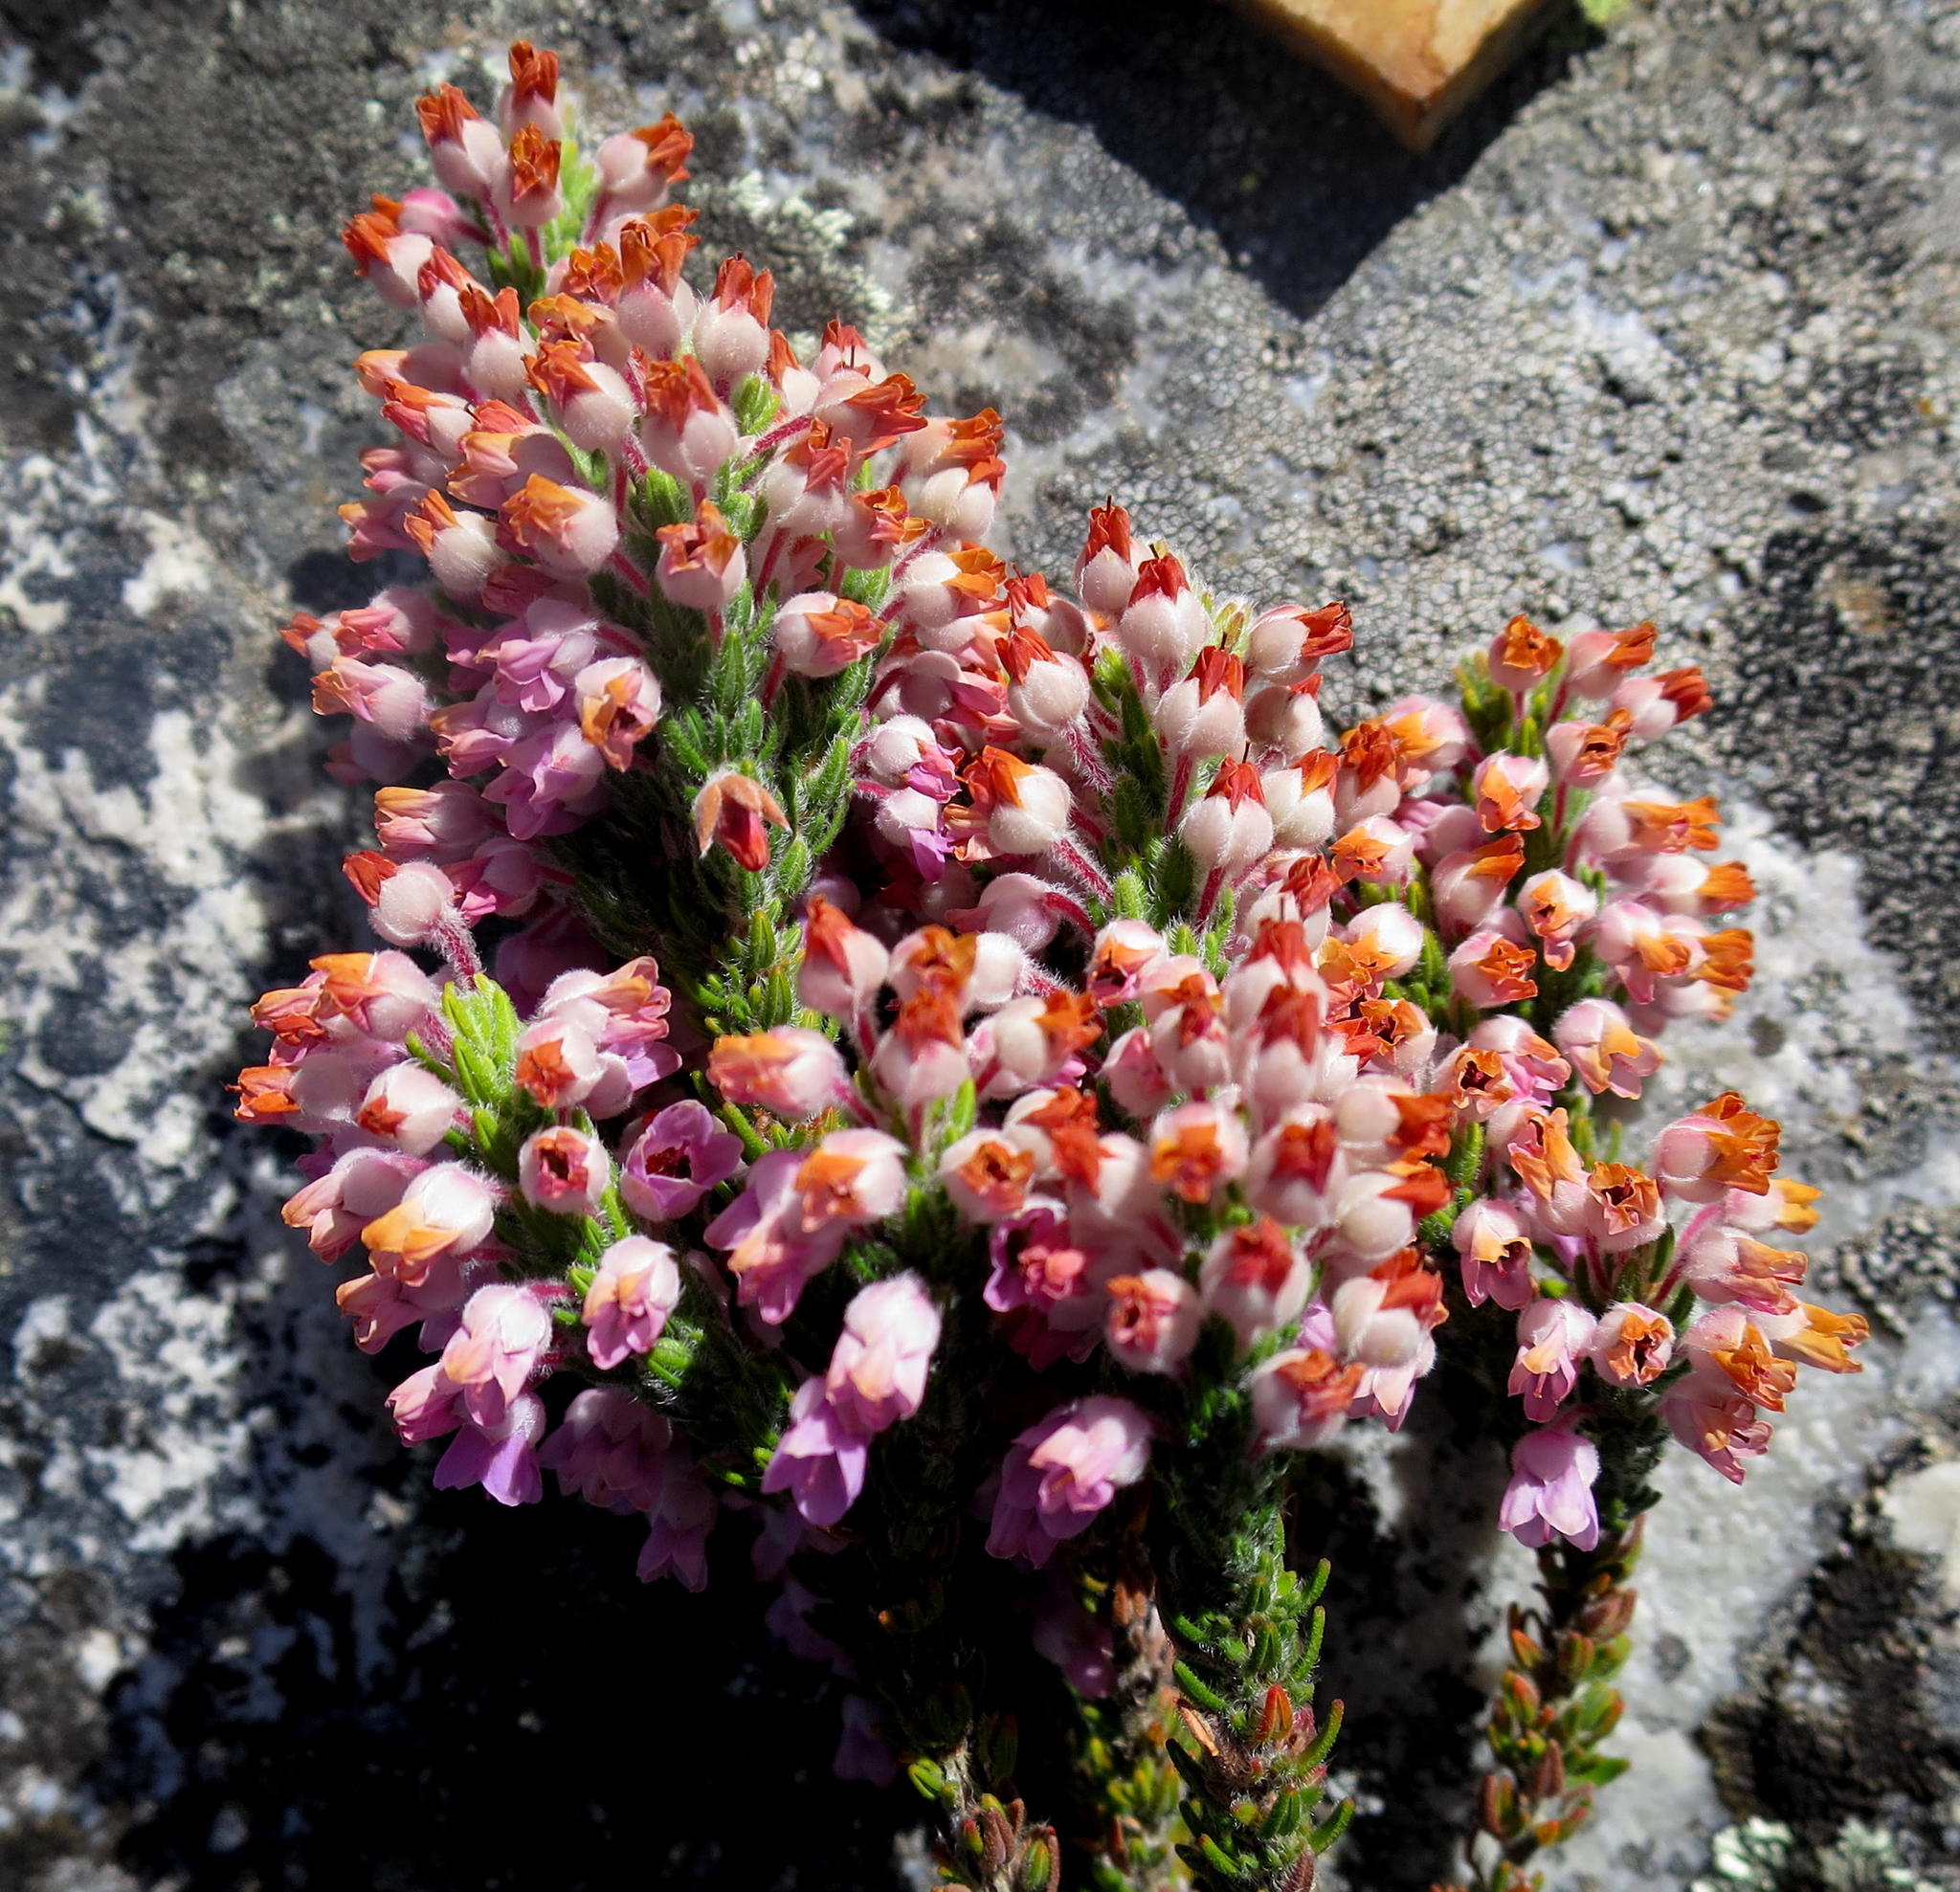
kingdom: Plantae
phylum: Tracheophyta
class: Magnoliopsida
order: Ericales
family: Ericaceae
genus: Erica
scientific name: Erica nervata
